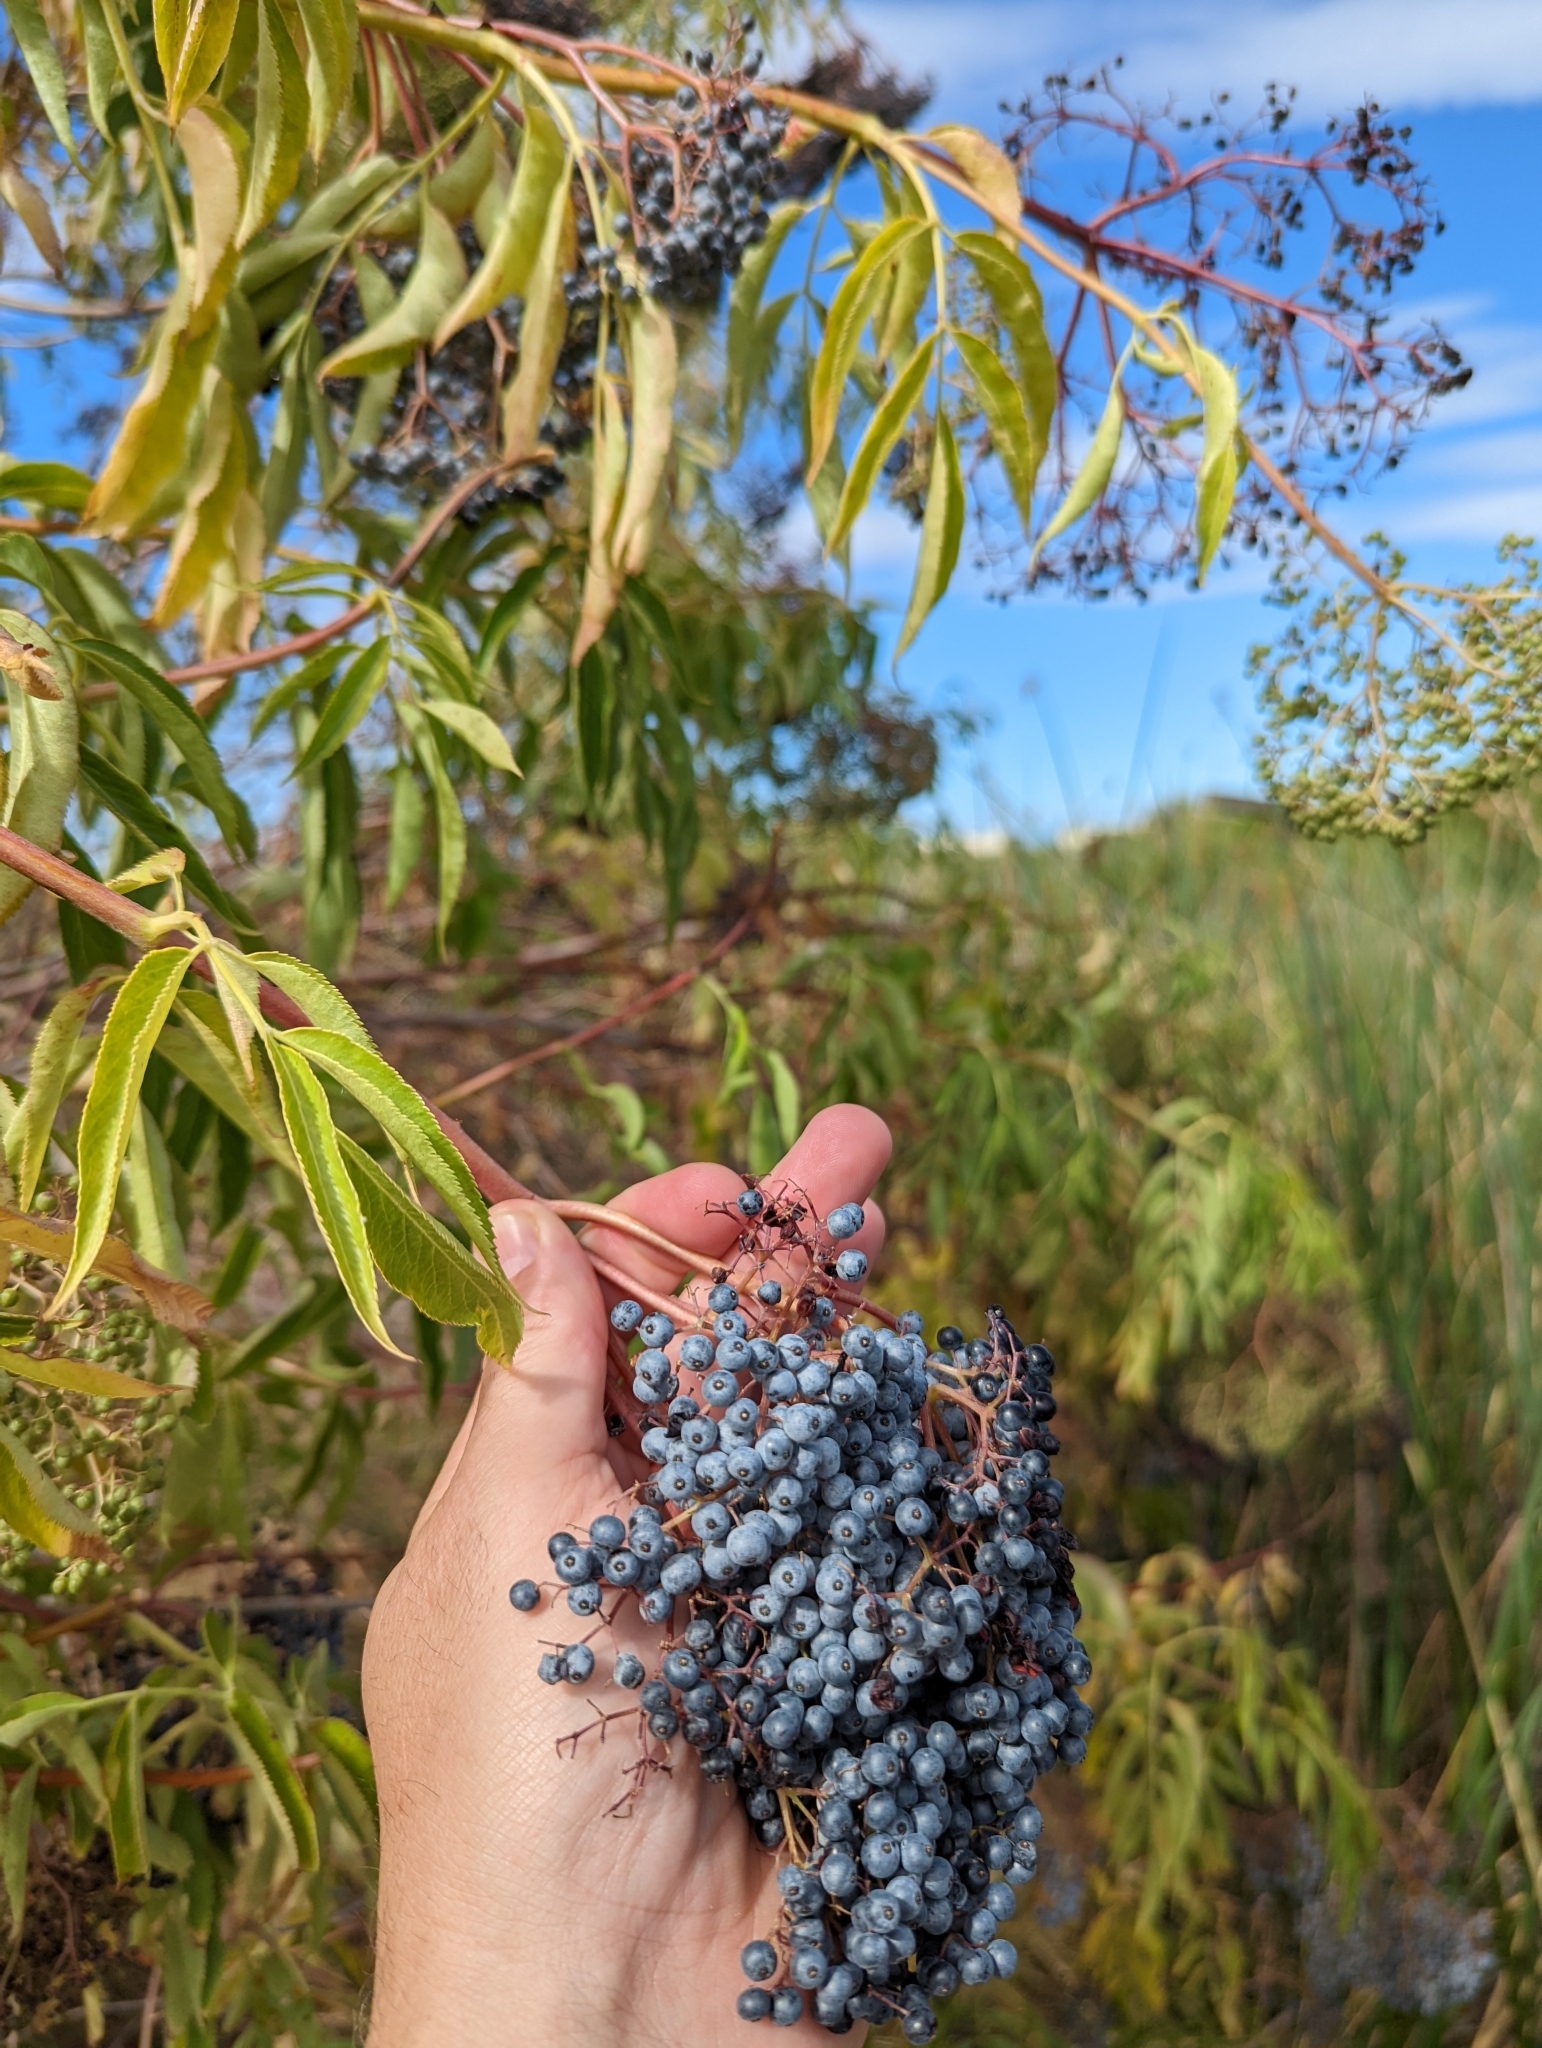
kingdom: Plantae
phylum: Tracheophyta
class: Magnoliopsida
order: Dipsacales
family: Viburnaceae
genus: Sambucus
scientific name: Sambucus cerulea
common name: Blue elder
